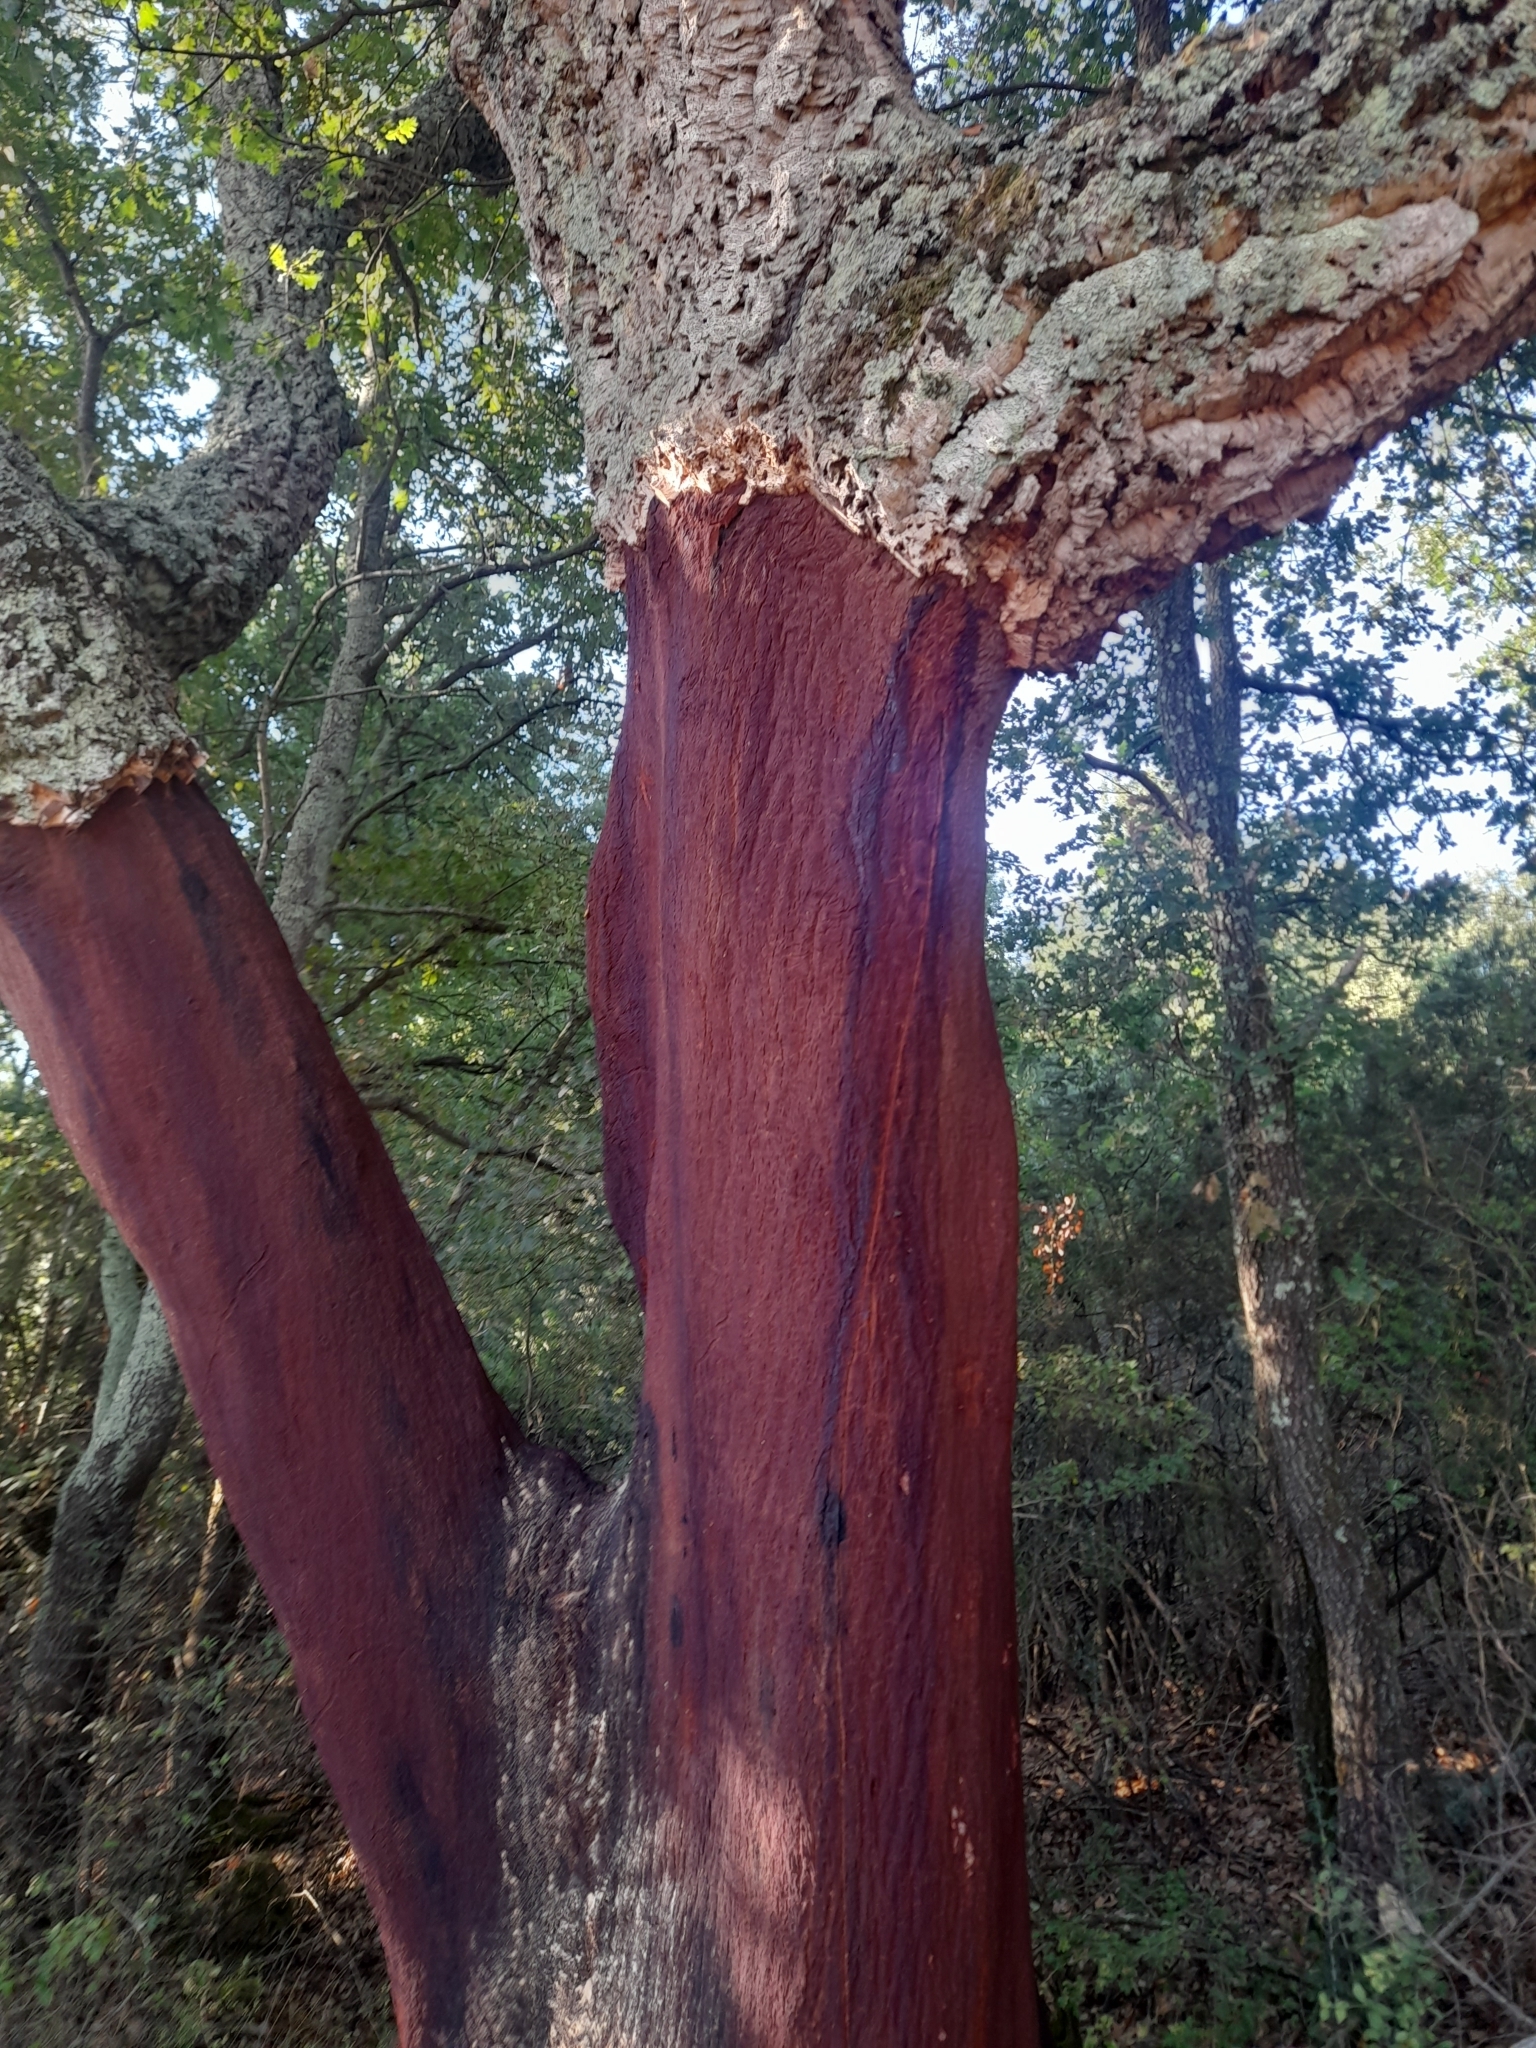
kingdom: Plantae
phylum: Tracheophyta
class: Magnoliopsida
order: Fagales
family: Fagaceae
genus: Quercus
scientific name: Quercus suber
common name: Cork oak
